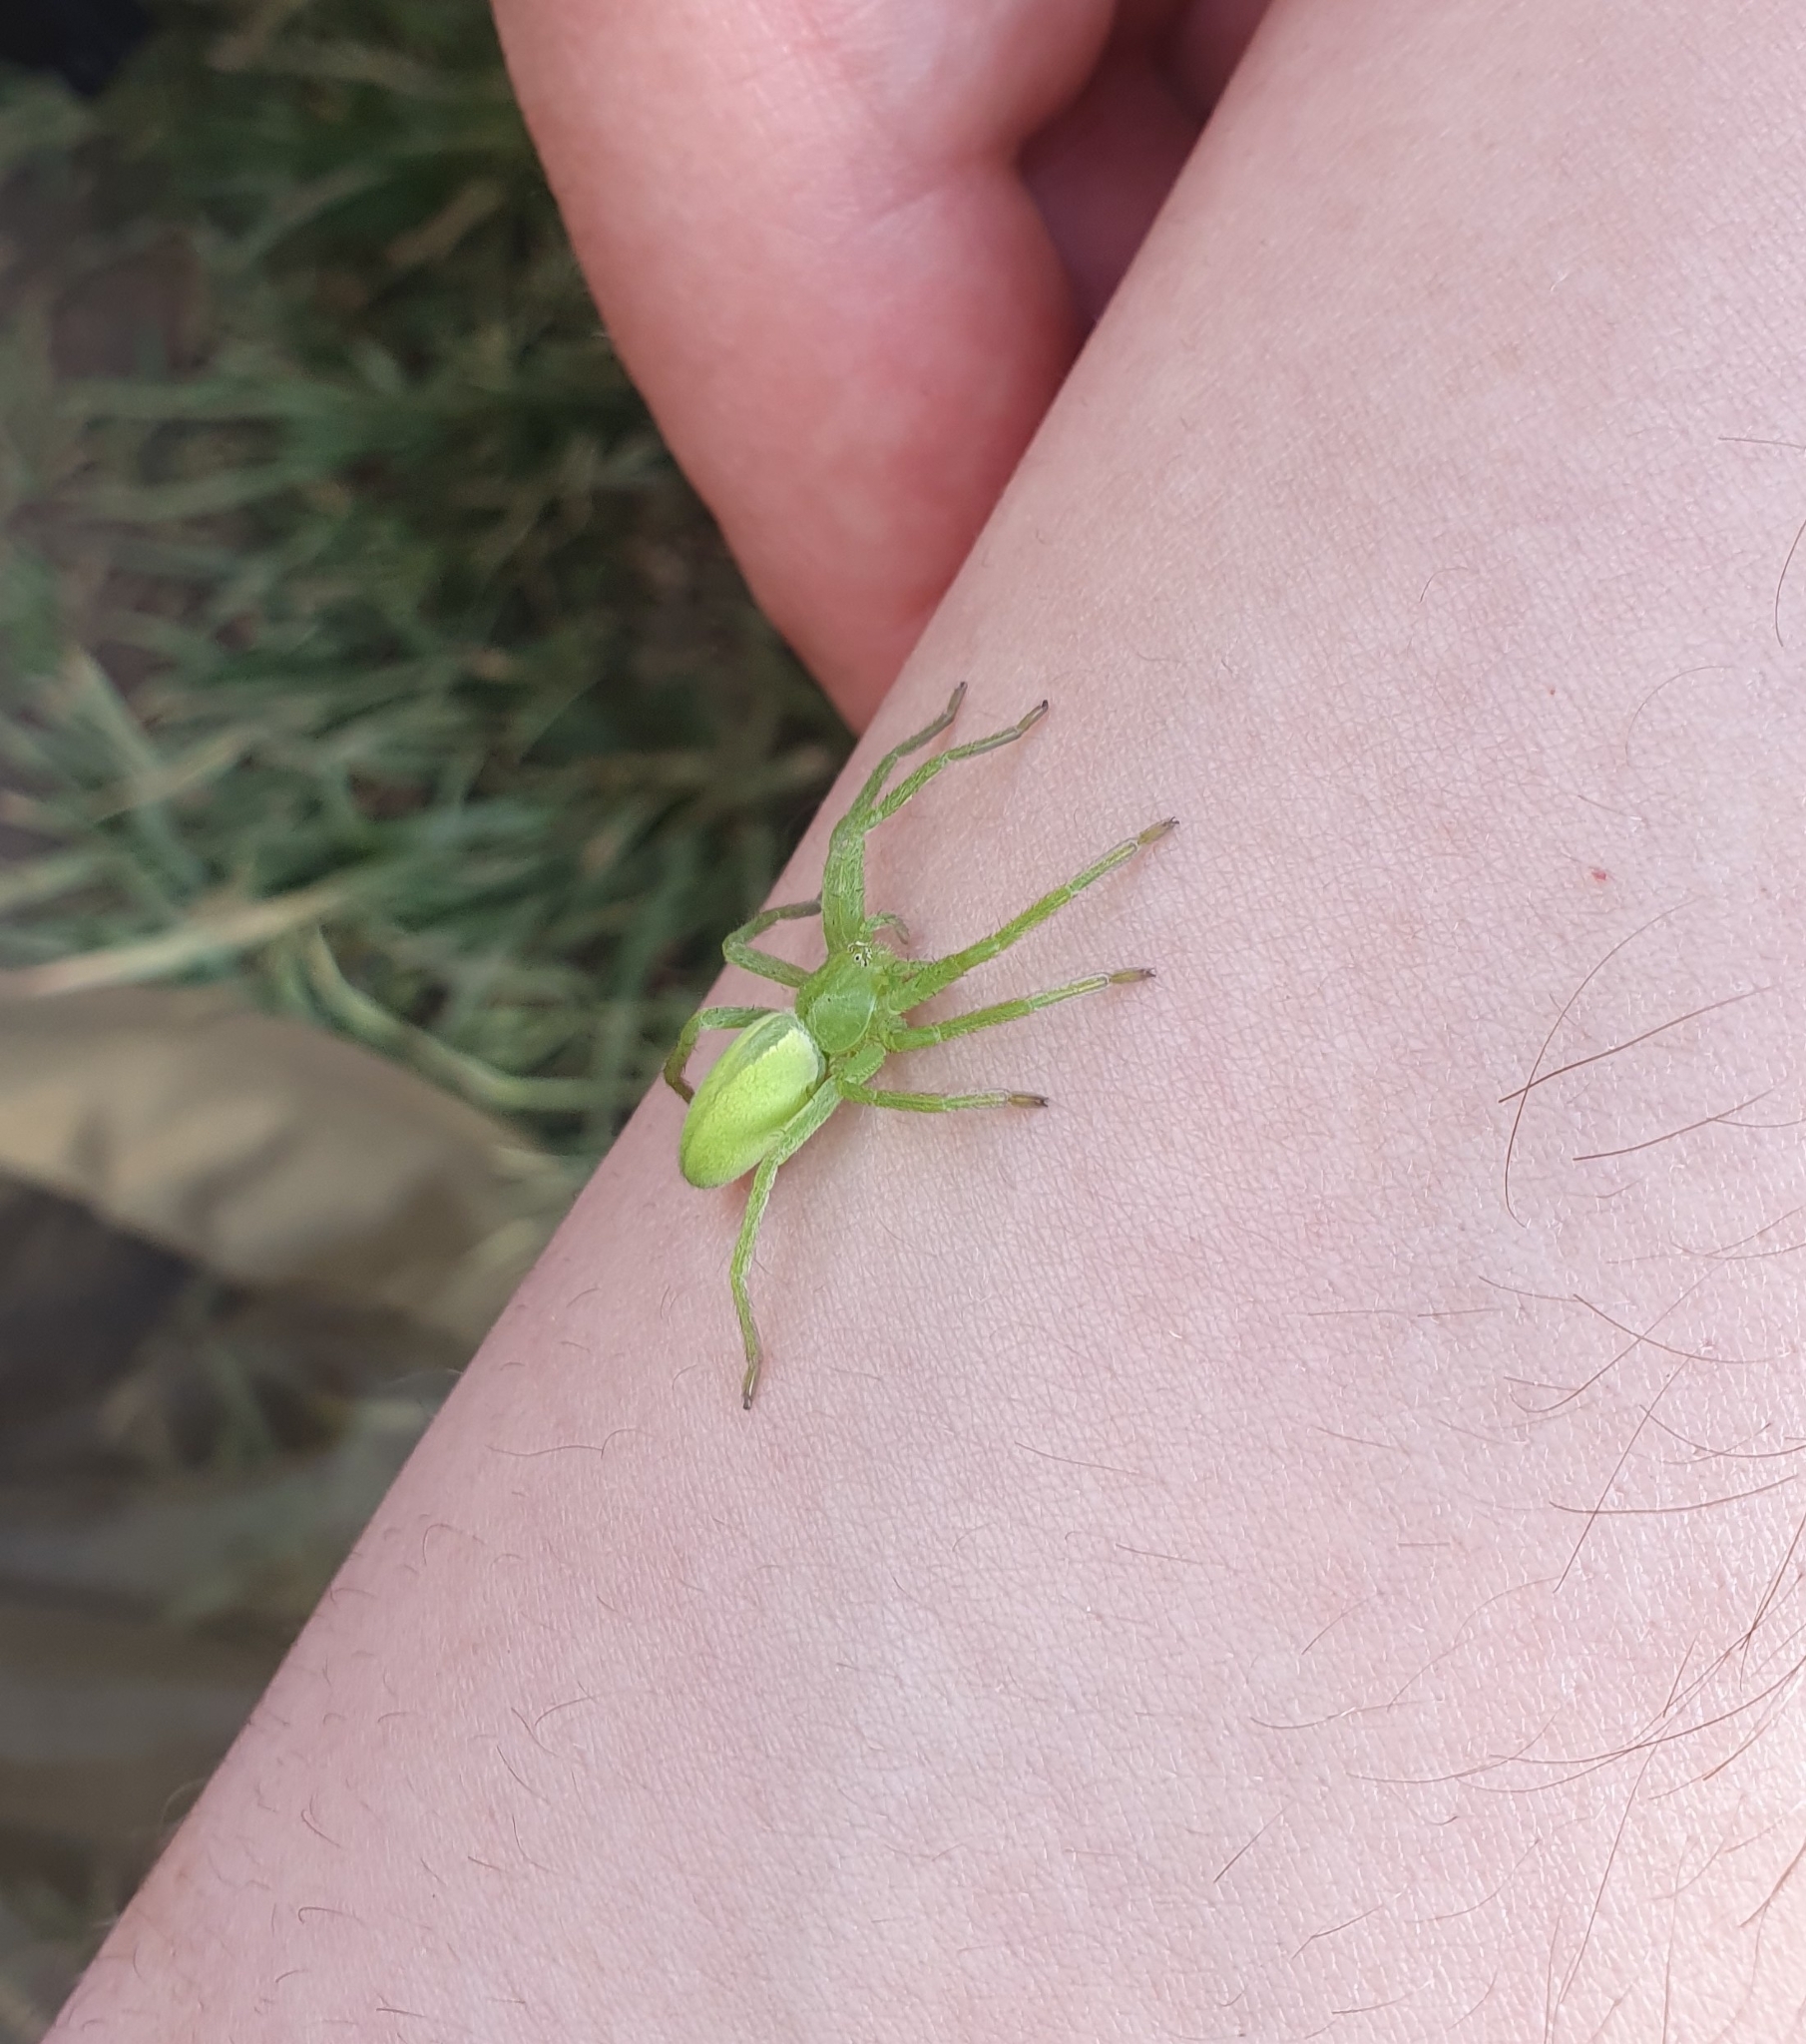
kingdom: Animalia
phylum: Arthropoda
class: Arachnida
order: Araneae
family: Sparassidae
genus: Micrommata
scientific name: Micrommata virescens
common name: Green spider
